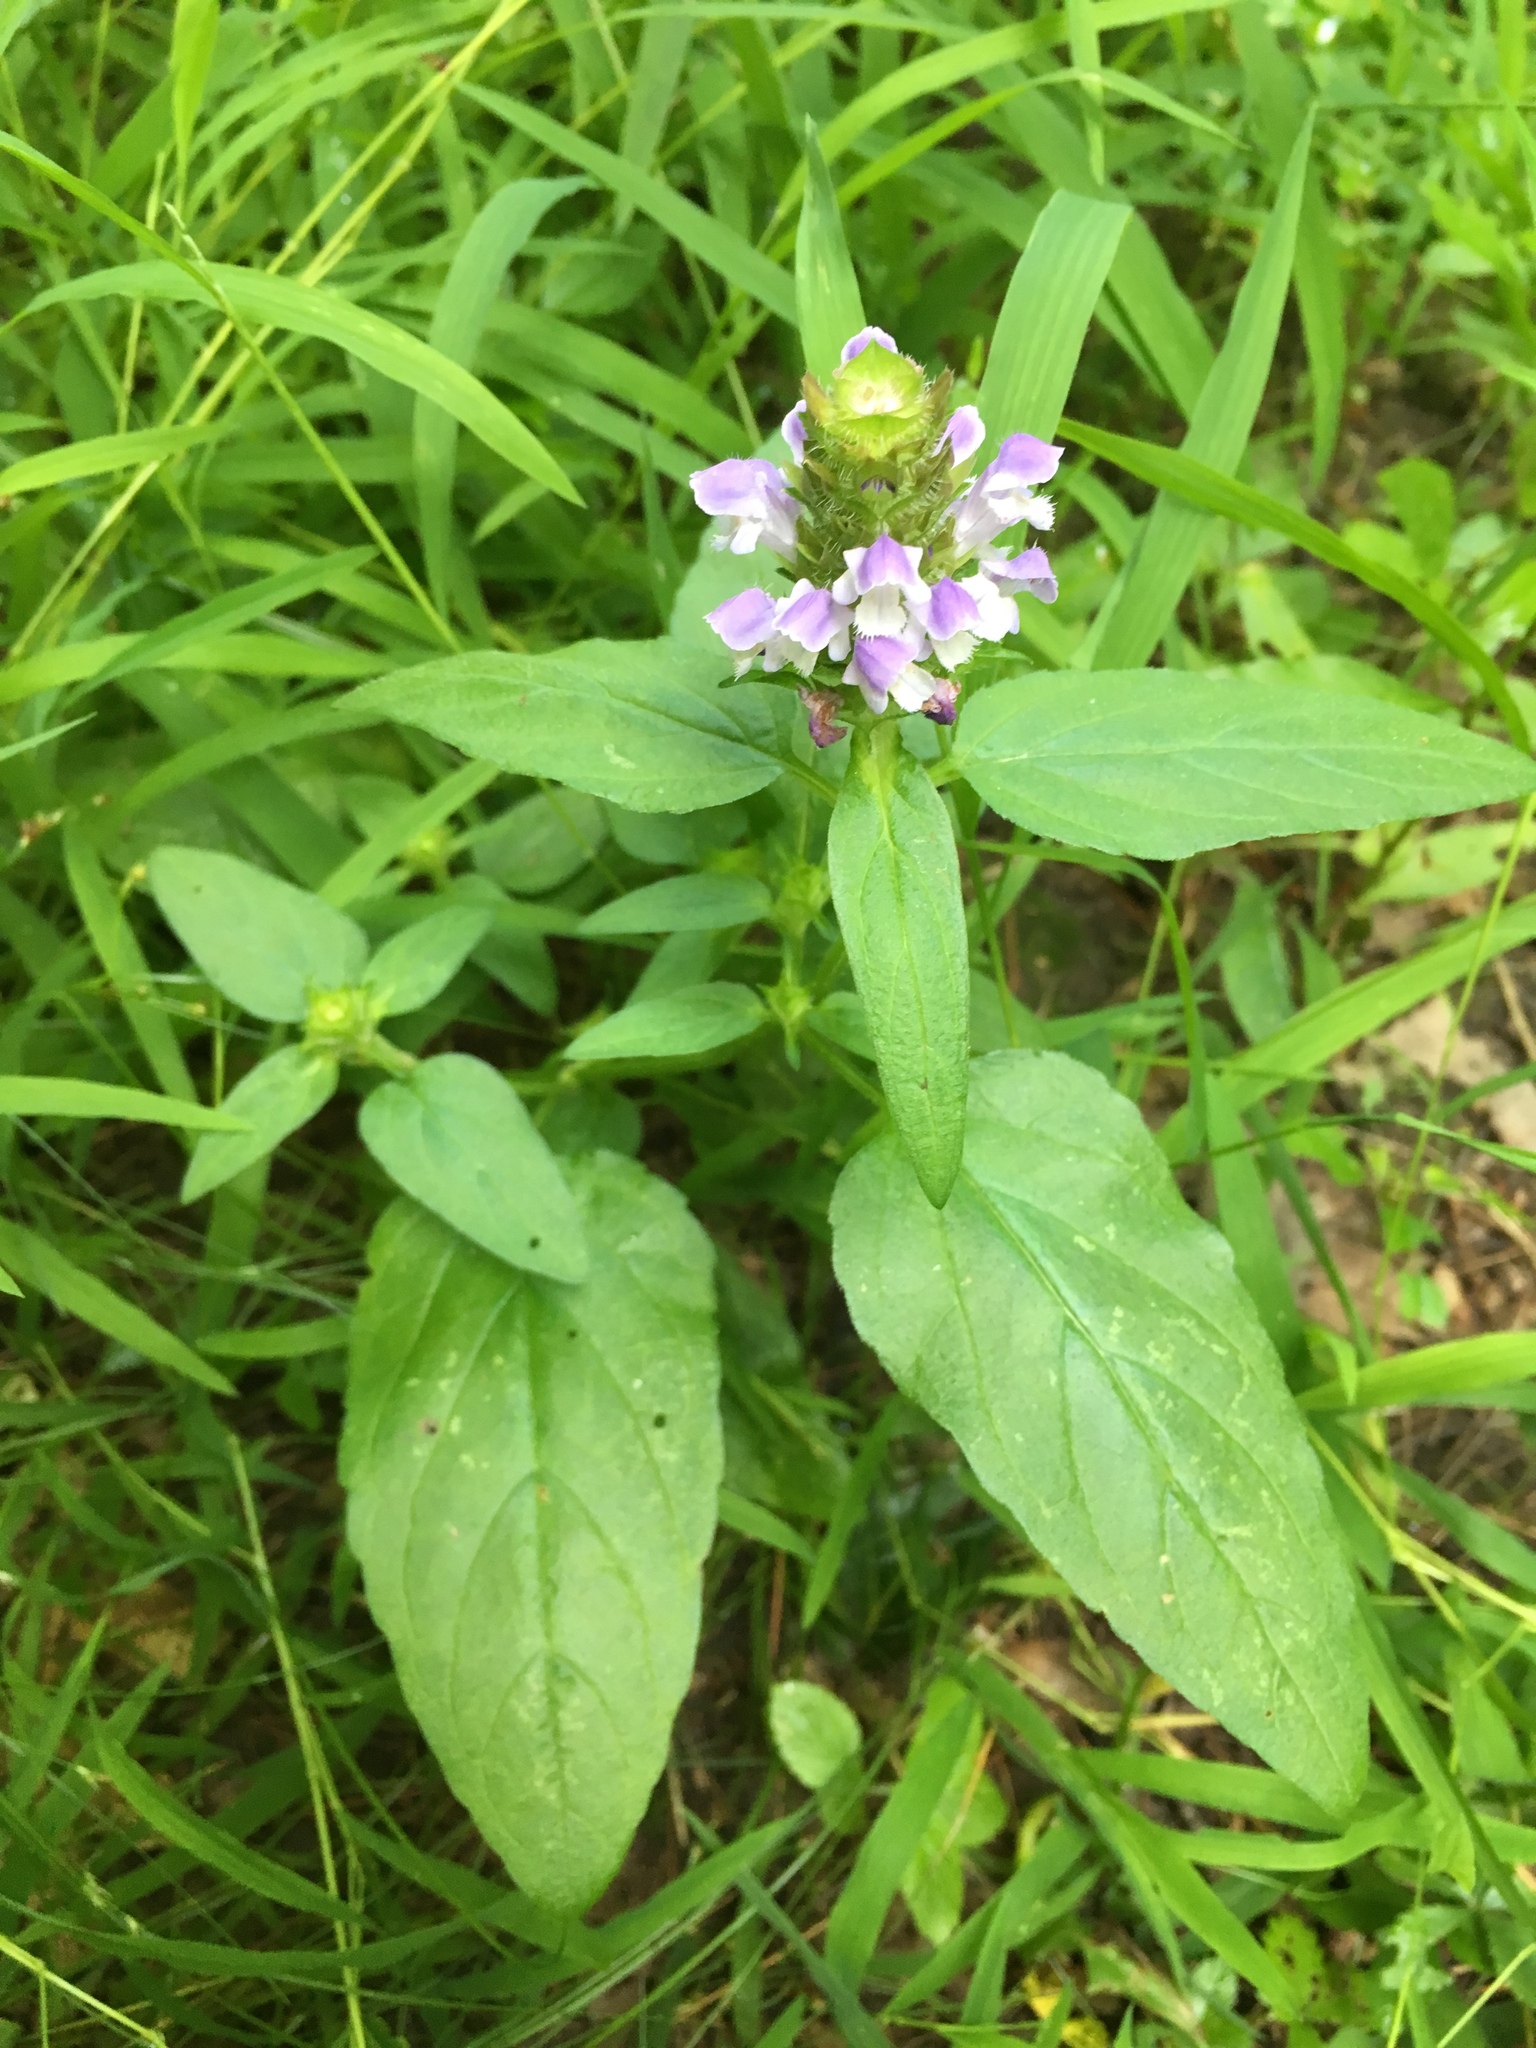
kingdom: Plantae
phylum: Tracheophyta
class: Magnoliopsida
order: Lamiales
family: Lamiaceae
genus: Prunella
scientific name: Prunella vulgaris
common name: Heal-all
